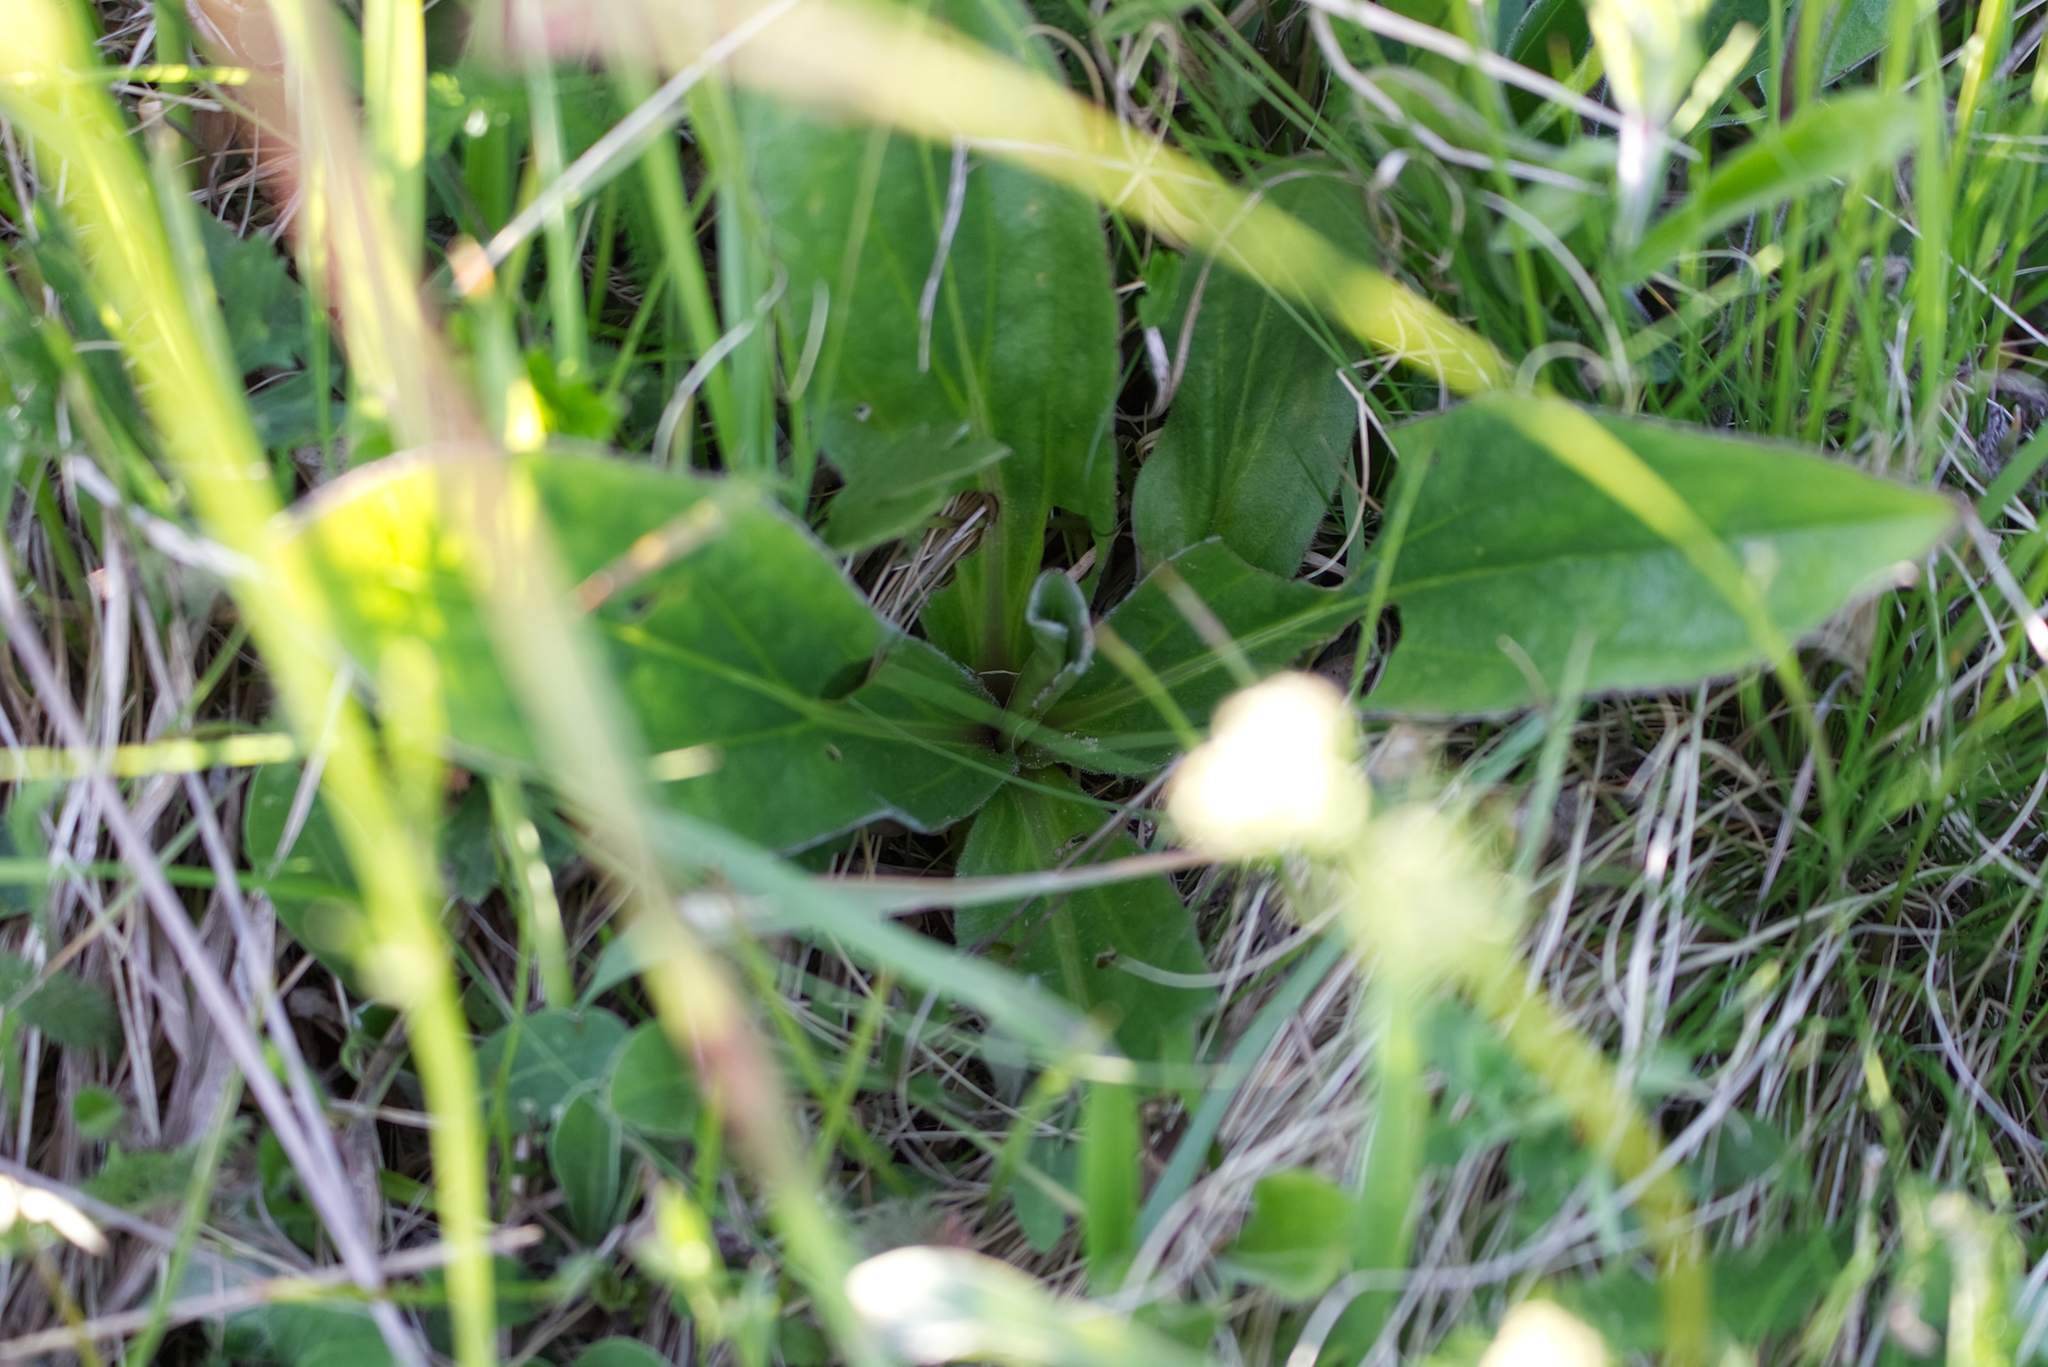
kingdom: Plantae
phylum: Tracheophyta
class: Magnoliopsida
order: Asterales
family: Asteraceae
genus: Arnica
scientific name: Arnica montana
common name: Leopard's bane
